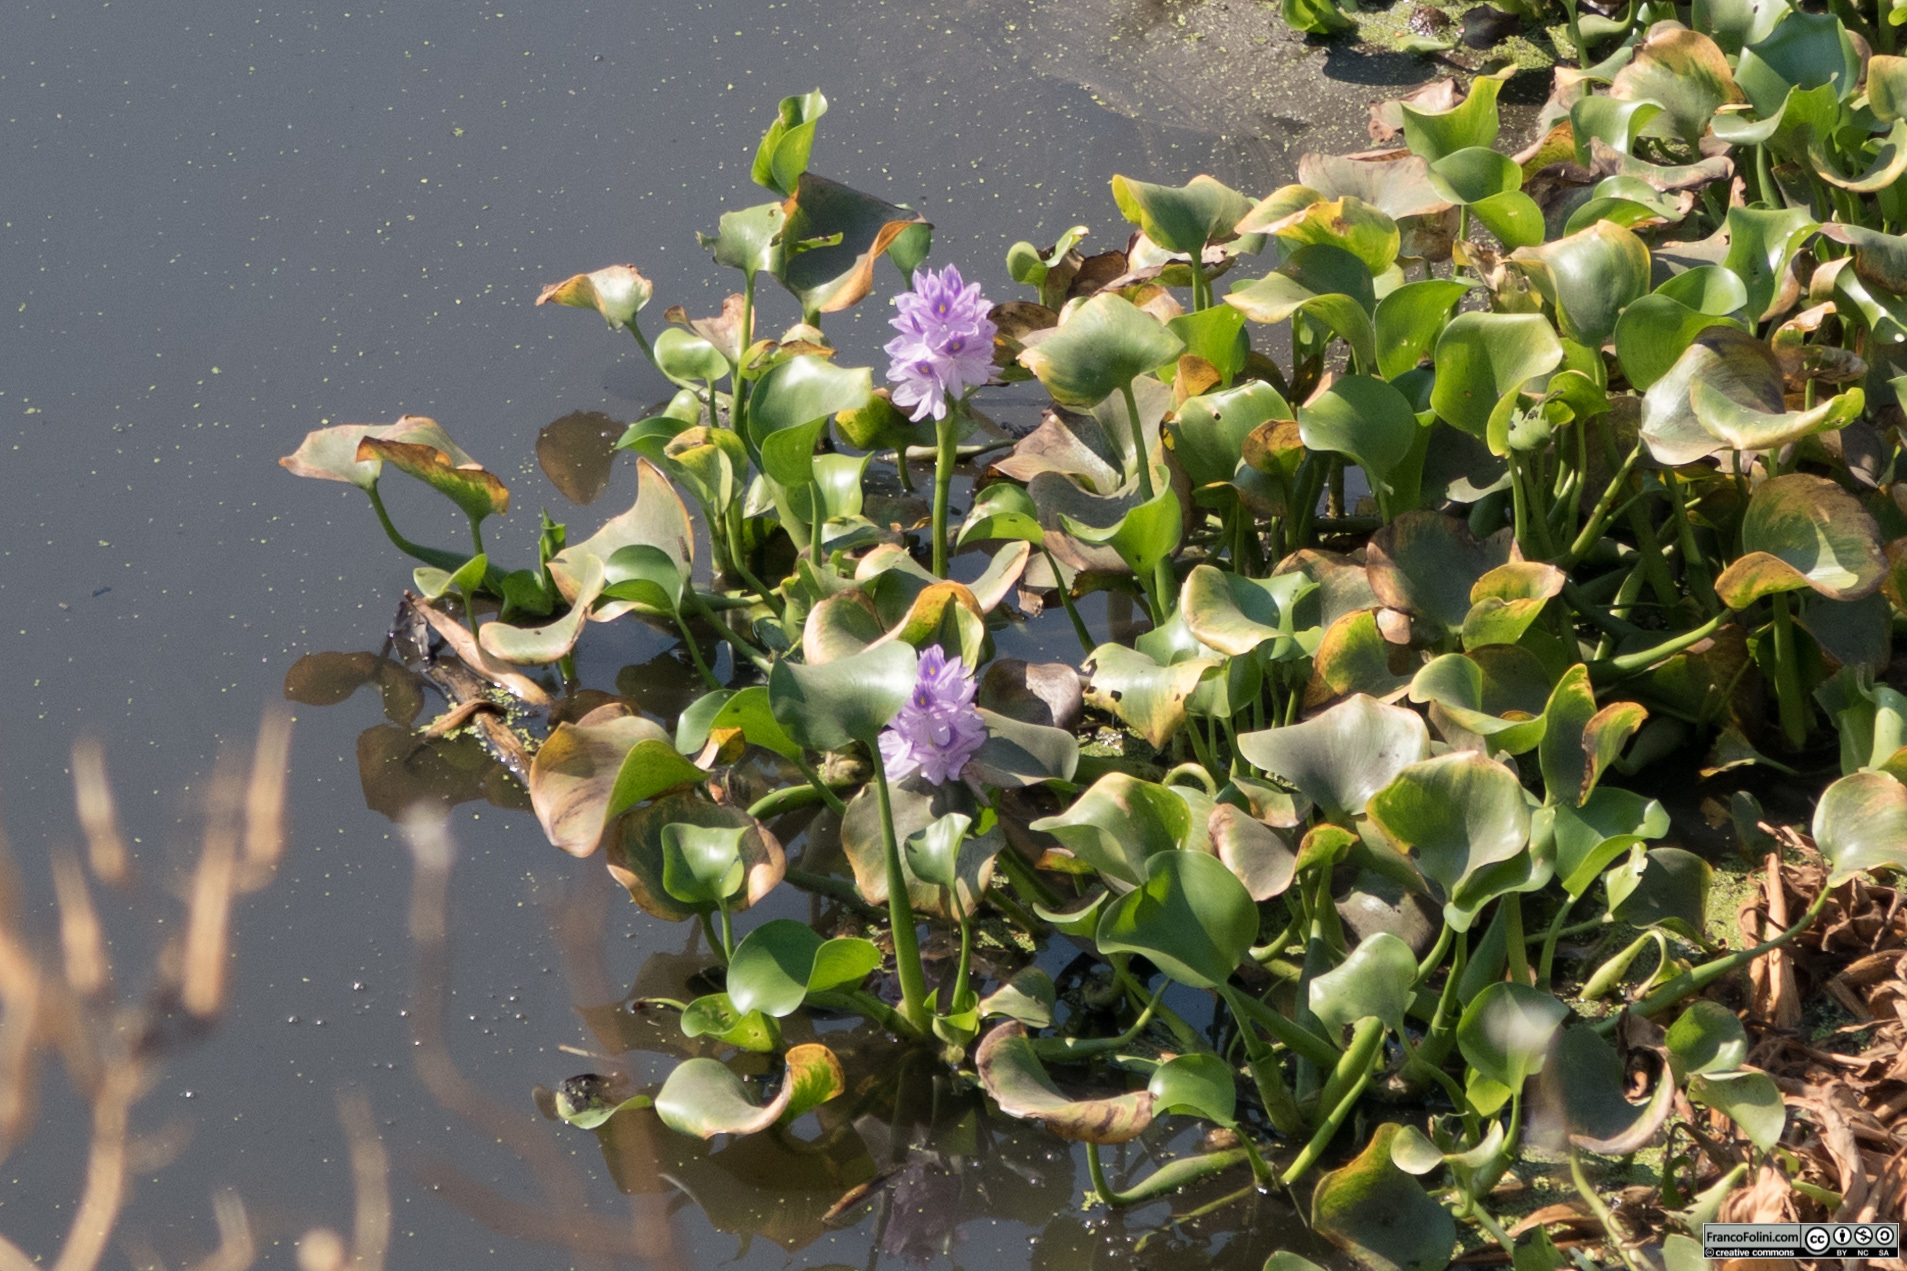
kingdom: Plantae
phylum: Tracheophyta
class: Liliopsida
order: Commelinales
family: Pontederiaceae
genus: Pontederia
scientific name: Pontederia crassipes
